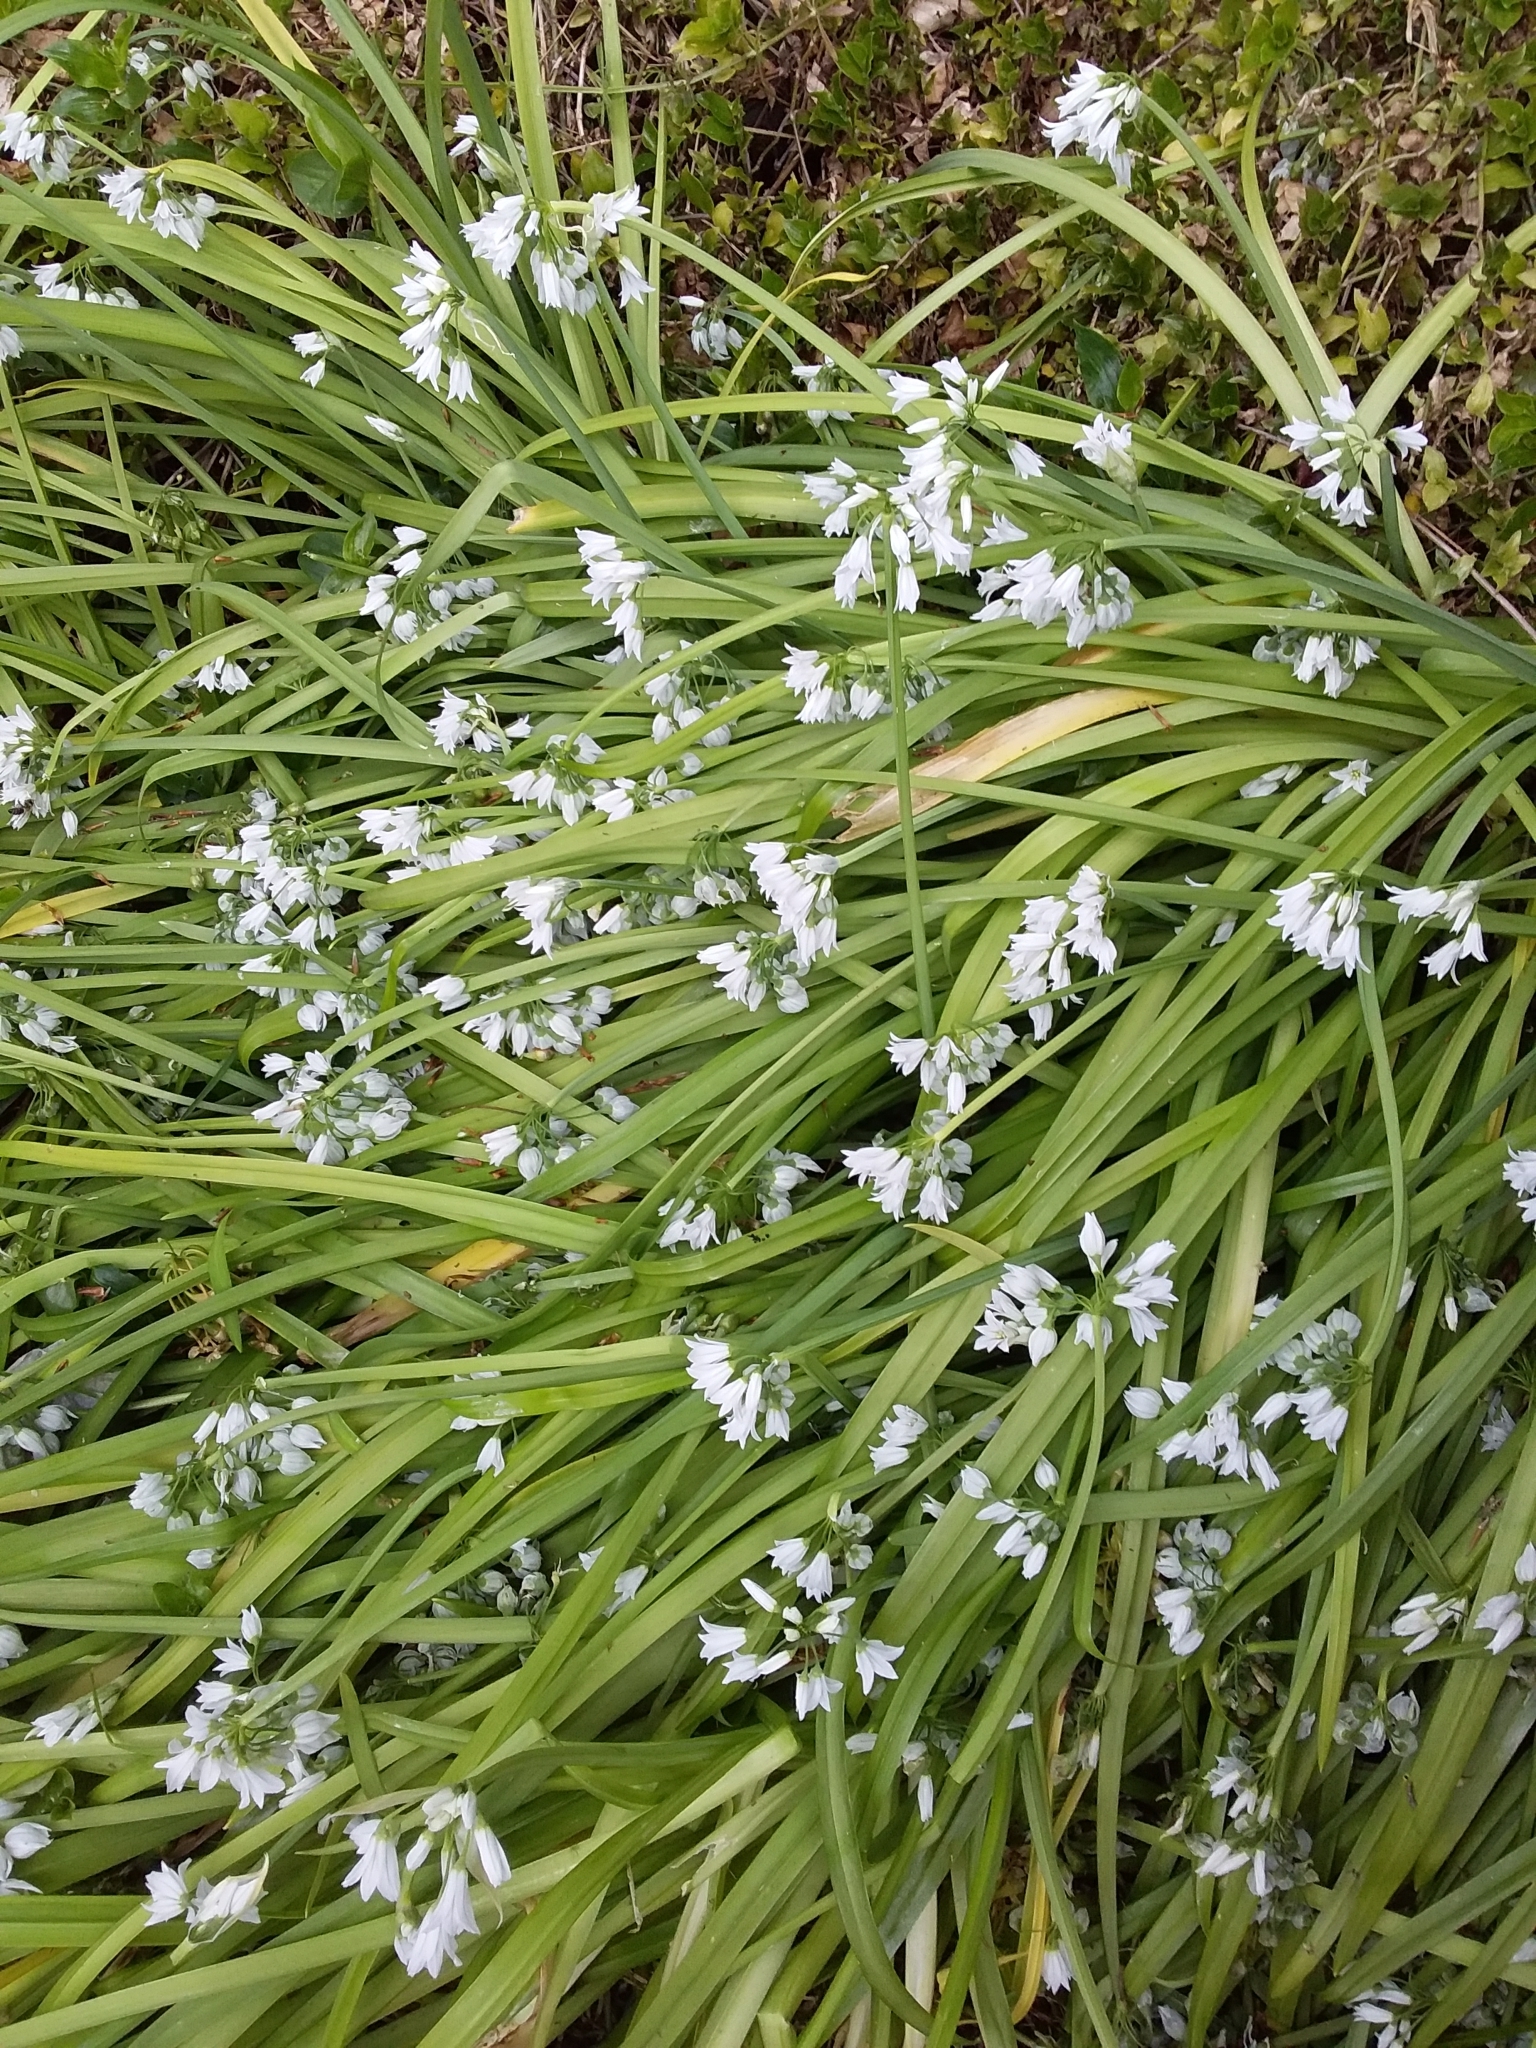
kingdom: Plantae
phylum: Tracheophyta
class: Liliopsida
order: Asparagales
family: Amaryllidaceae
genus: Allium
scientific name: Allium triquetrum
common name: Three-cornered garlic
